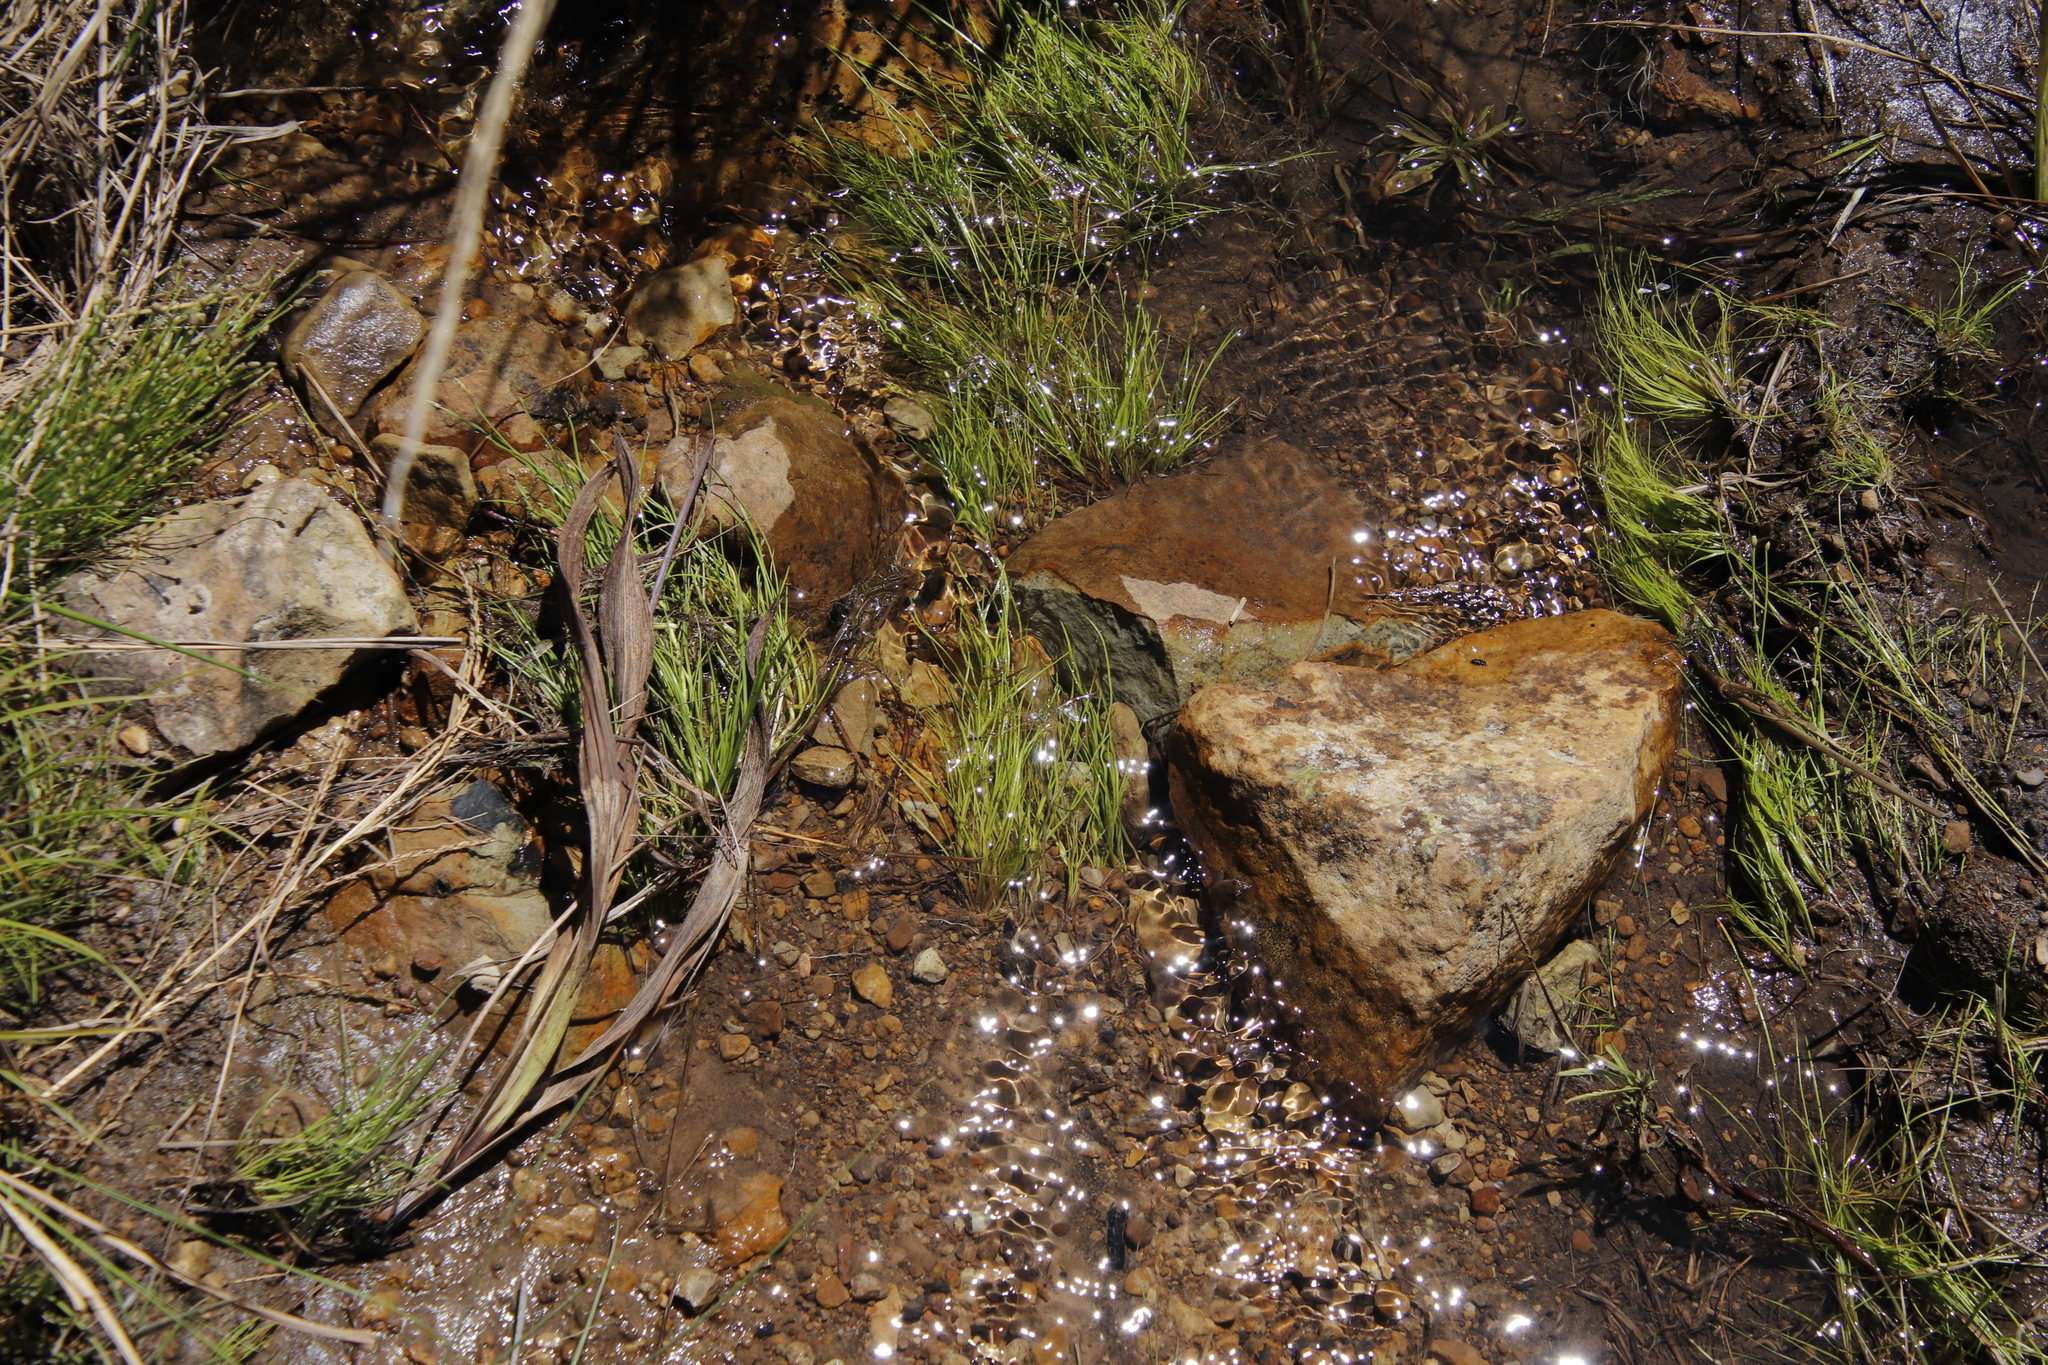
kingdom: Plantae
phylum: Tracheophyta
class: Liliopsida
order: Poales
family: Cyperaceae
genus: Isolepis
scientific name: Isolepis fluitans
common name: Floating club-rush
